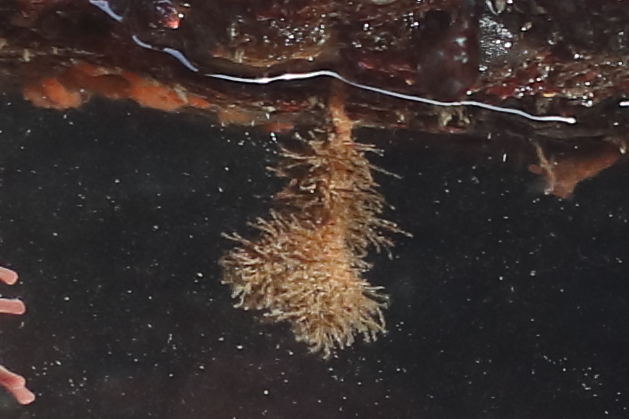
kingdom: Animalia
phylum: Chordata
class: Ascidiacea
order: Stolidobranchia
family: Pyuridae
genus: Boltenia
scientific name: Boltenia villosa
